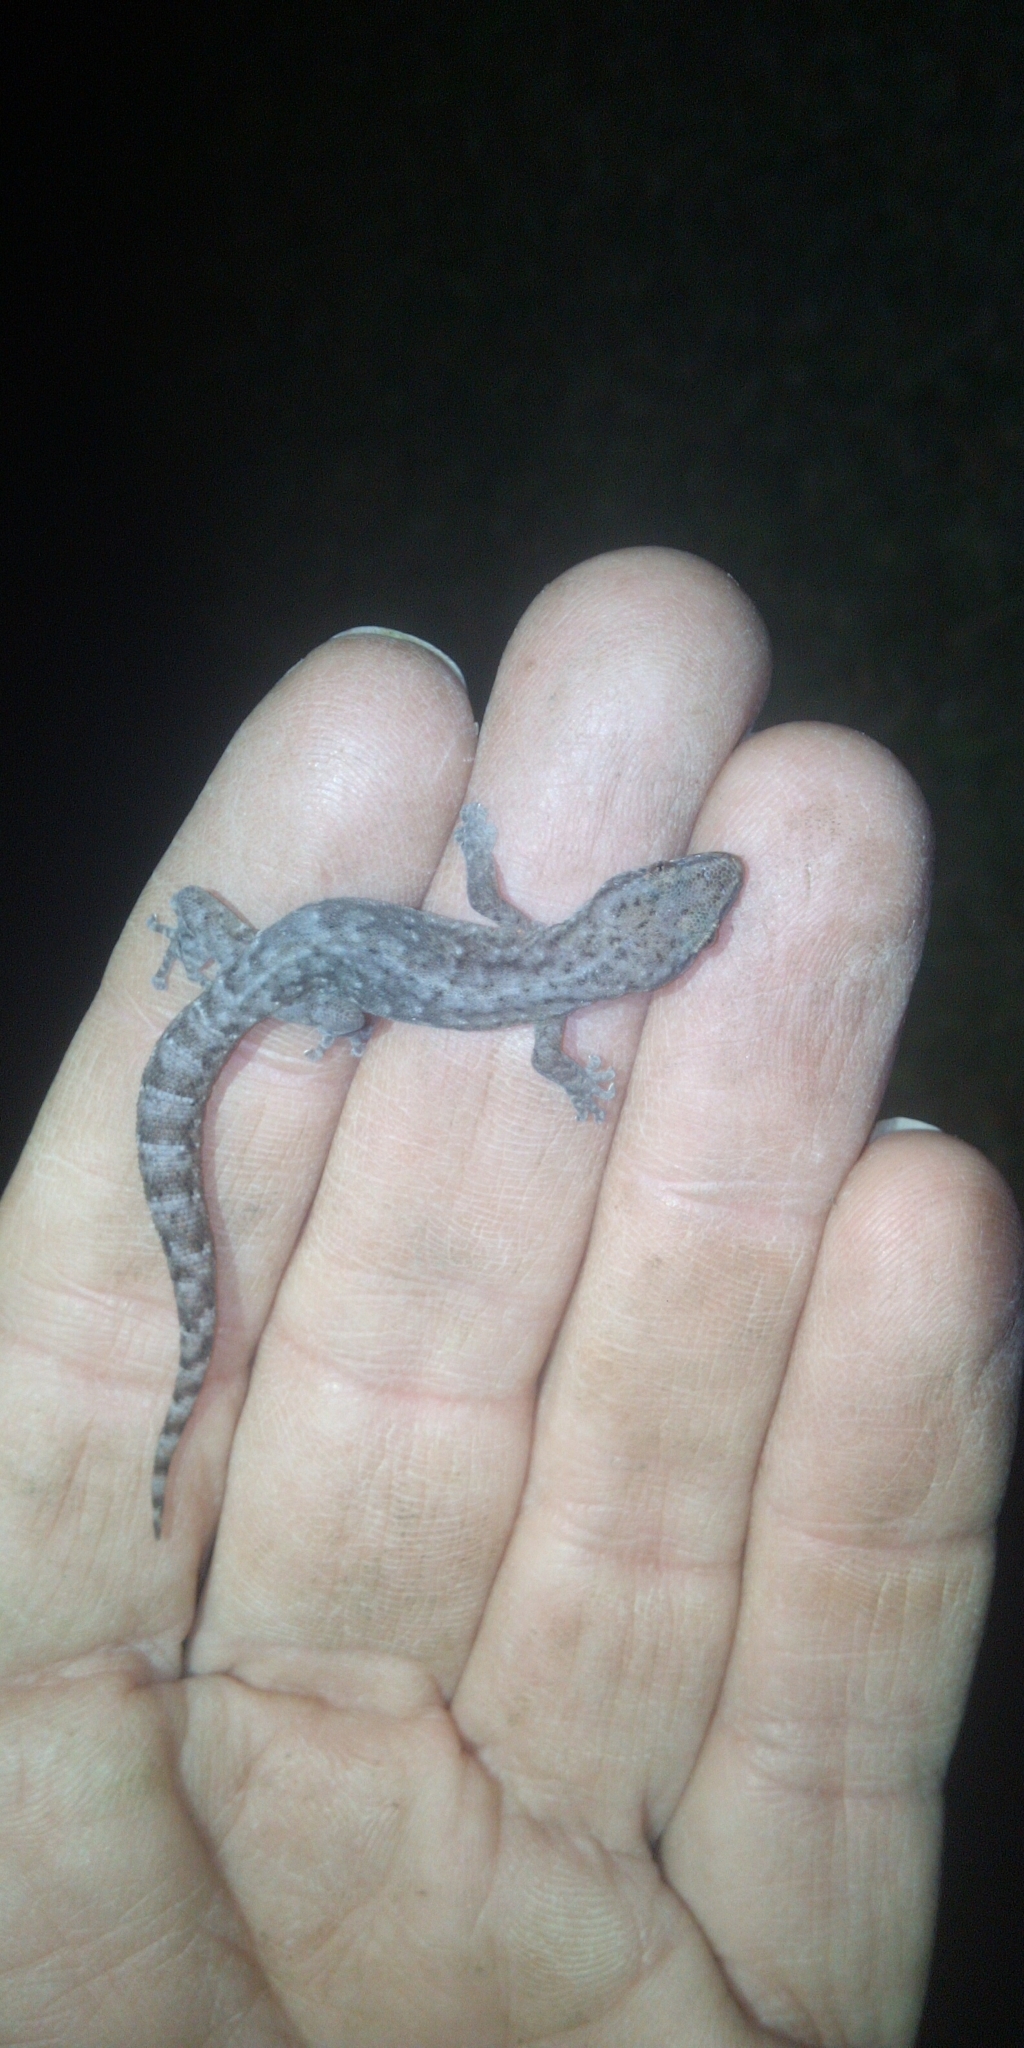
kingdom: Animalia
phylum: Chordata
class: Squamata
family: Gekkonidae
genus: Afrogecko
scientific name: Afrogecko porphyreus
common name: Marbled leaf-toed gecko
